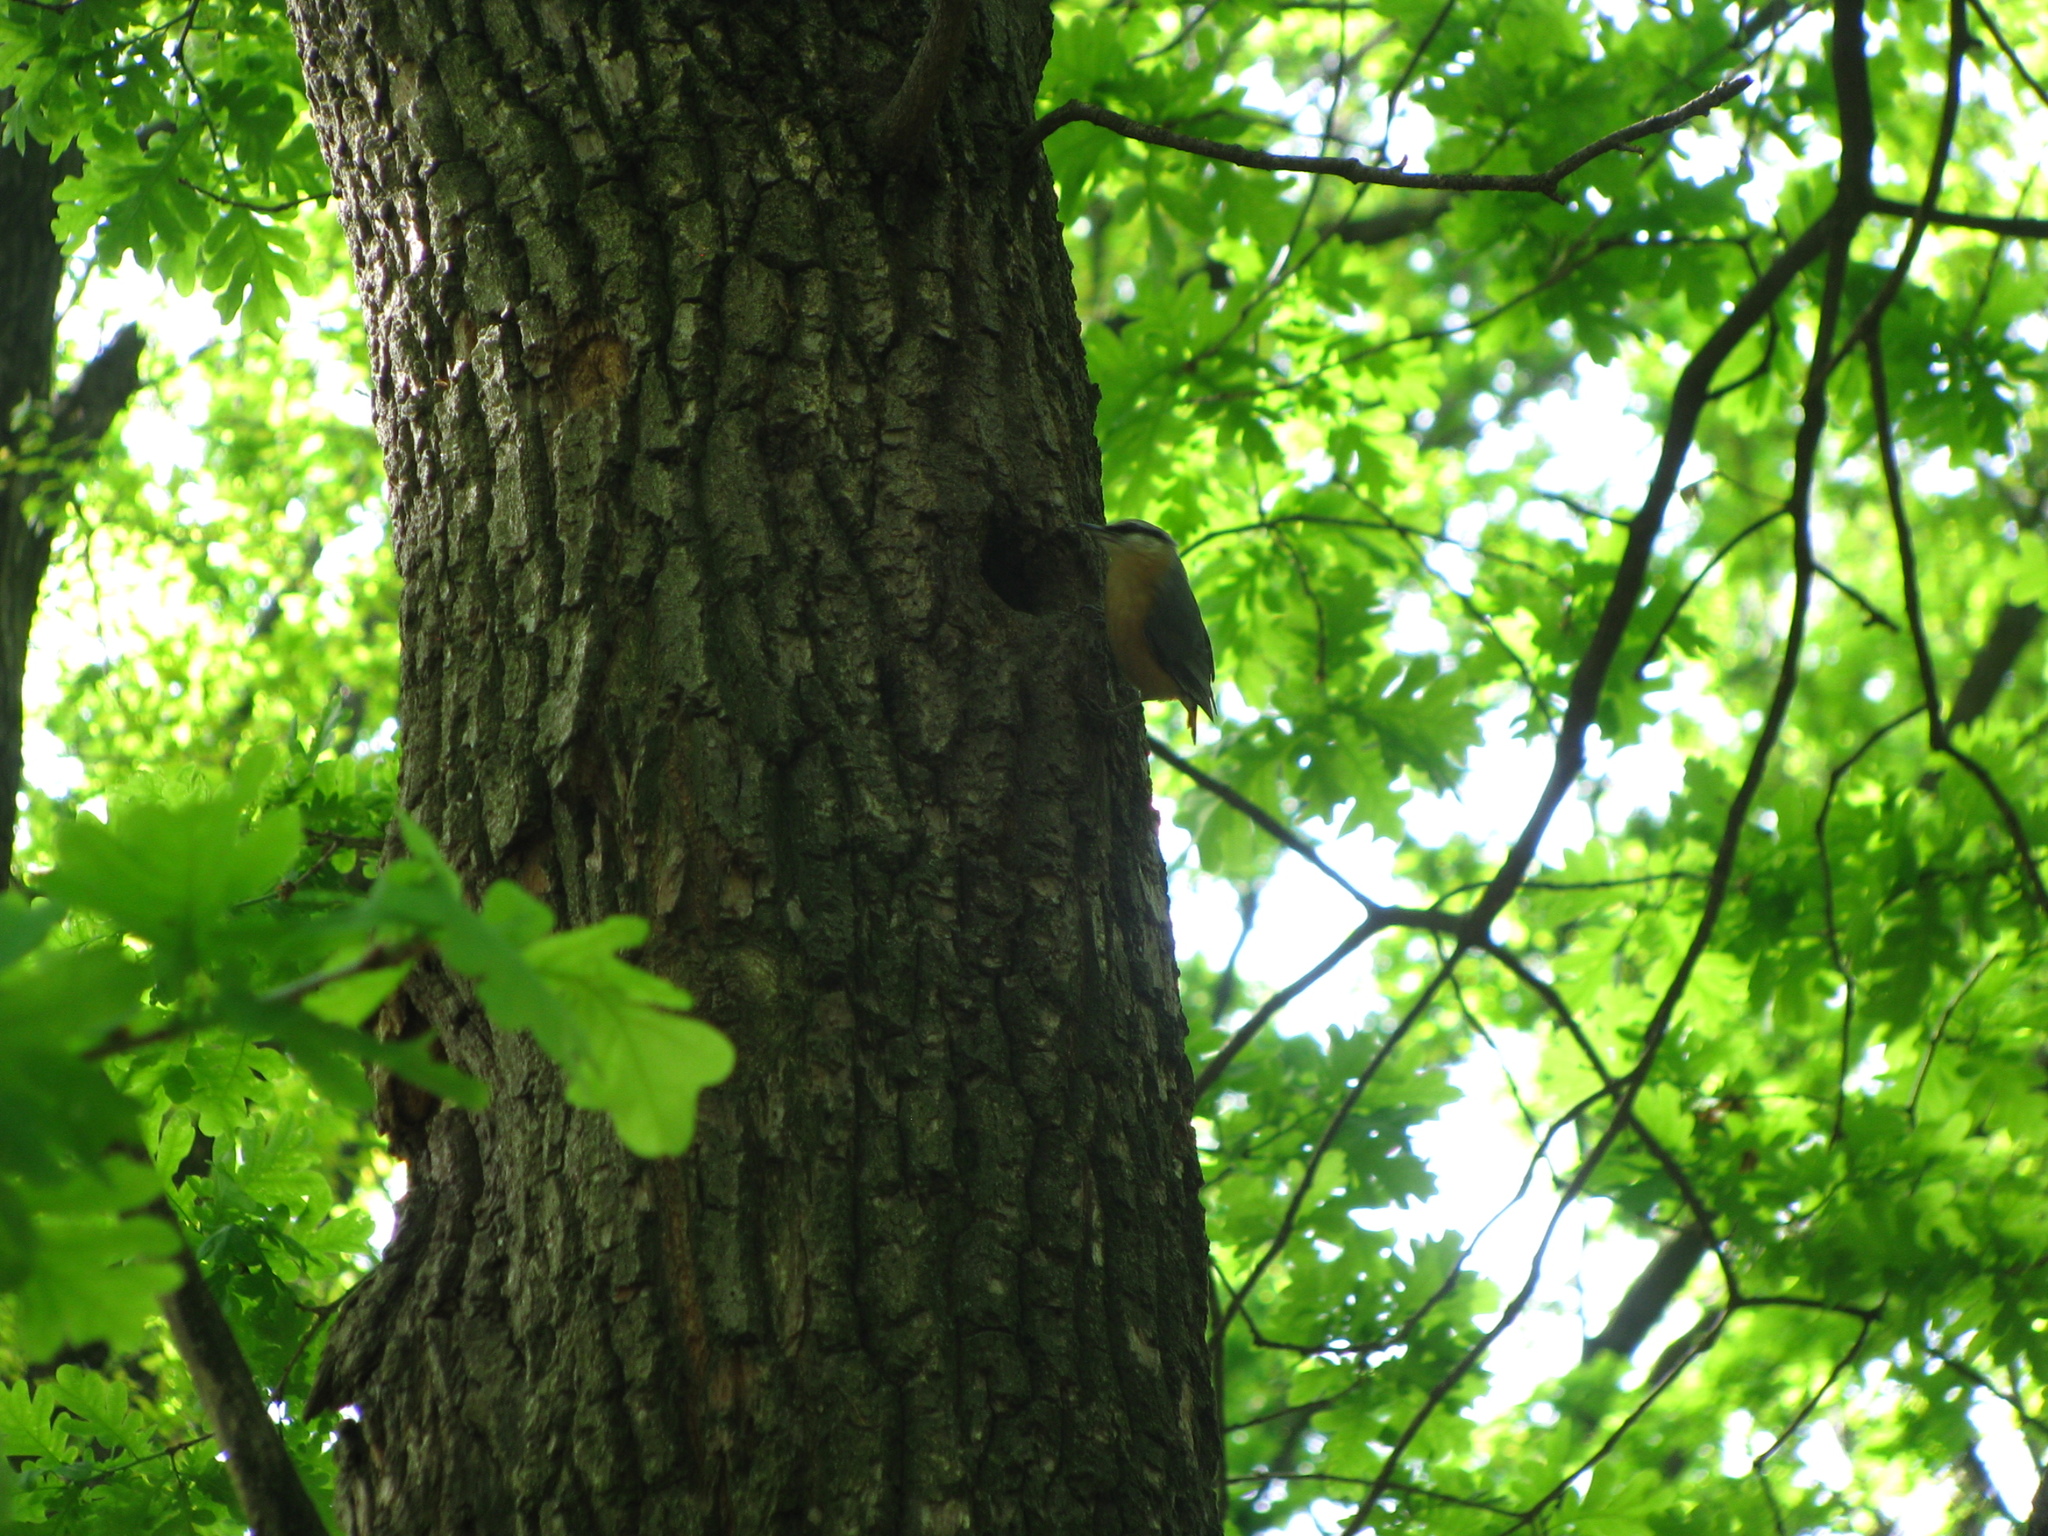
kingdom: Animalia
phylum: Chordata
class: Aves
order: Passeriformes
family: Sittidae
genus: Sitta
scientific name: Sitta europaea
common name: Eurasian nuthatch
